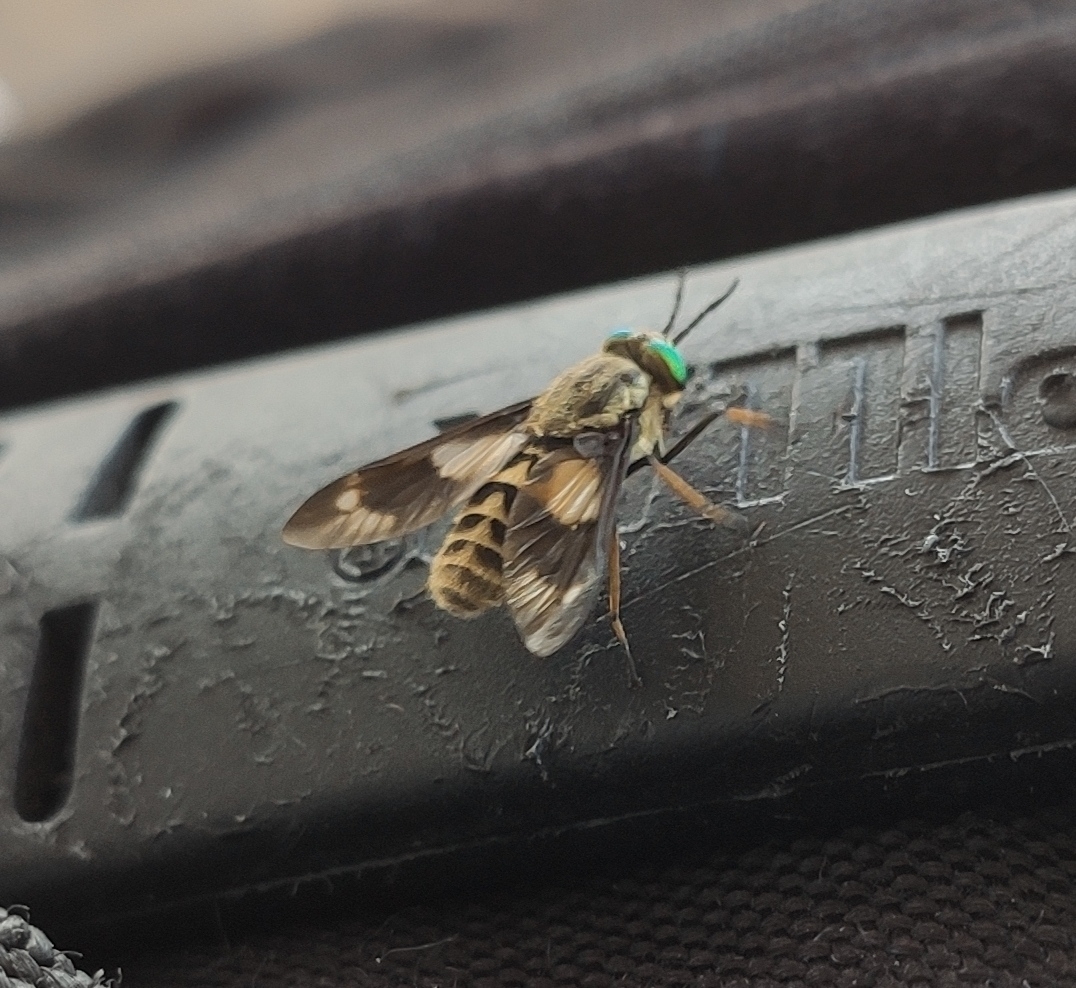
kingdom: Animalia
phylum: Arthropoda
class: Insecta
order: Diptera
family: Tabanidae
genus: Chrysops
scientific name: Chrysops relictus
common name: Twin-lobed deerfly
